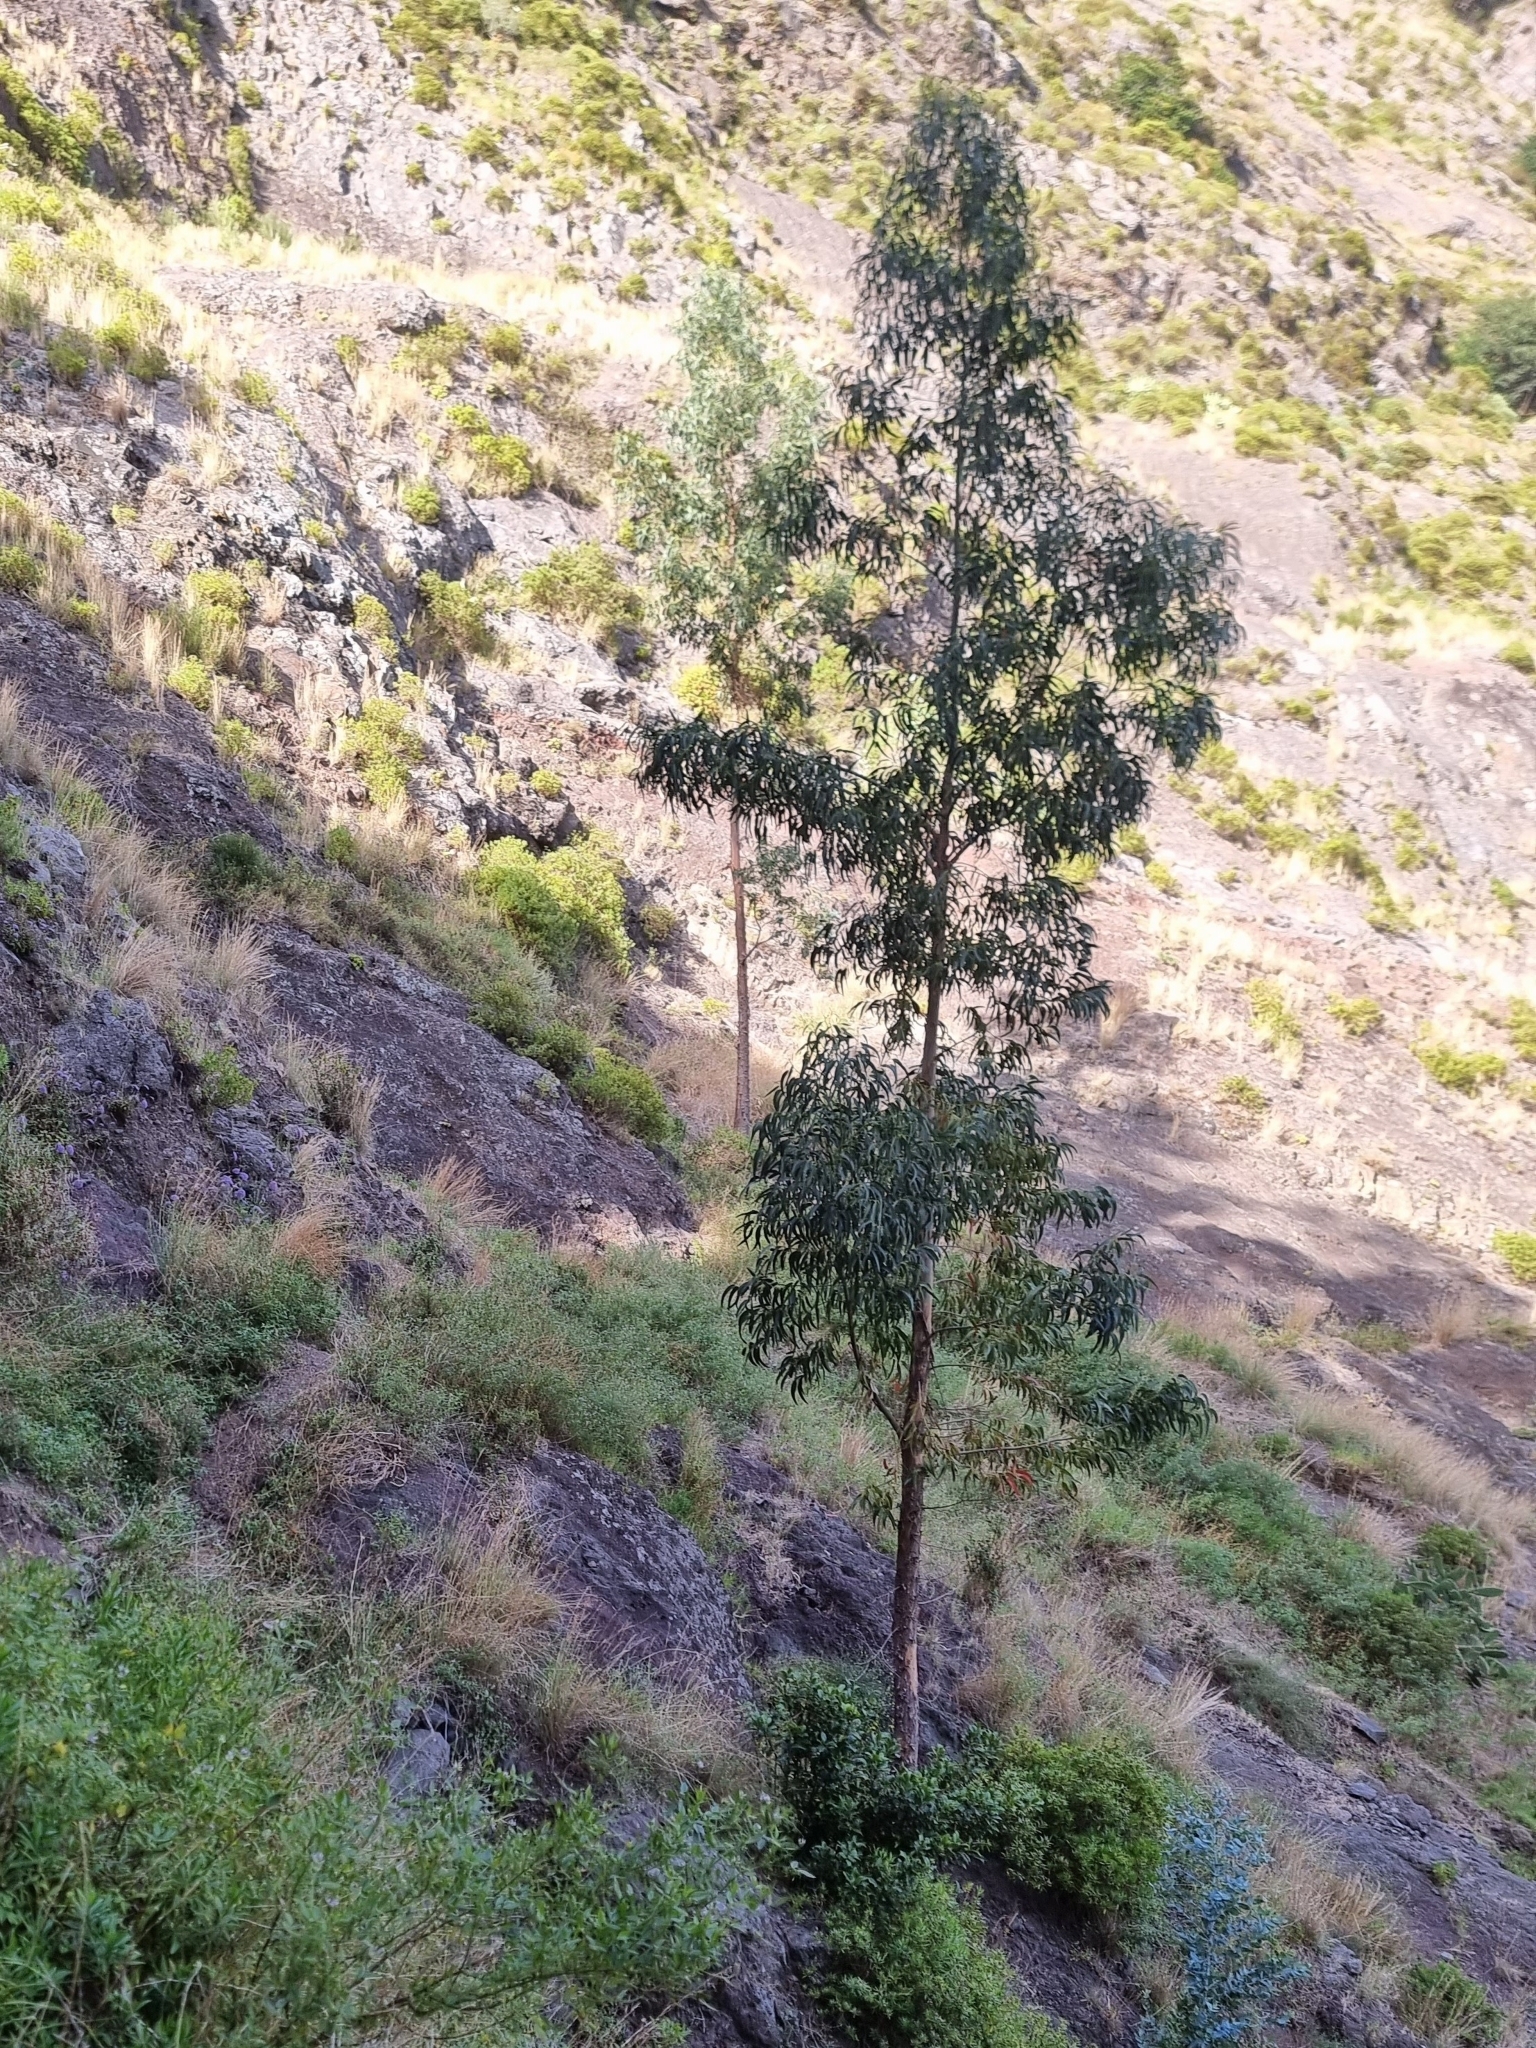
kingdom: Plantae
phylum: Tracheophyta
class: Magnoliopsida
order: Myrtales
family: Myrtaceae
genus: Eucalyptus
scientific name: Eucalyptus globulus
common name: Southern blue-gum
